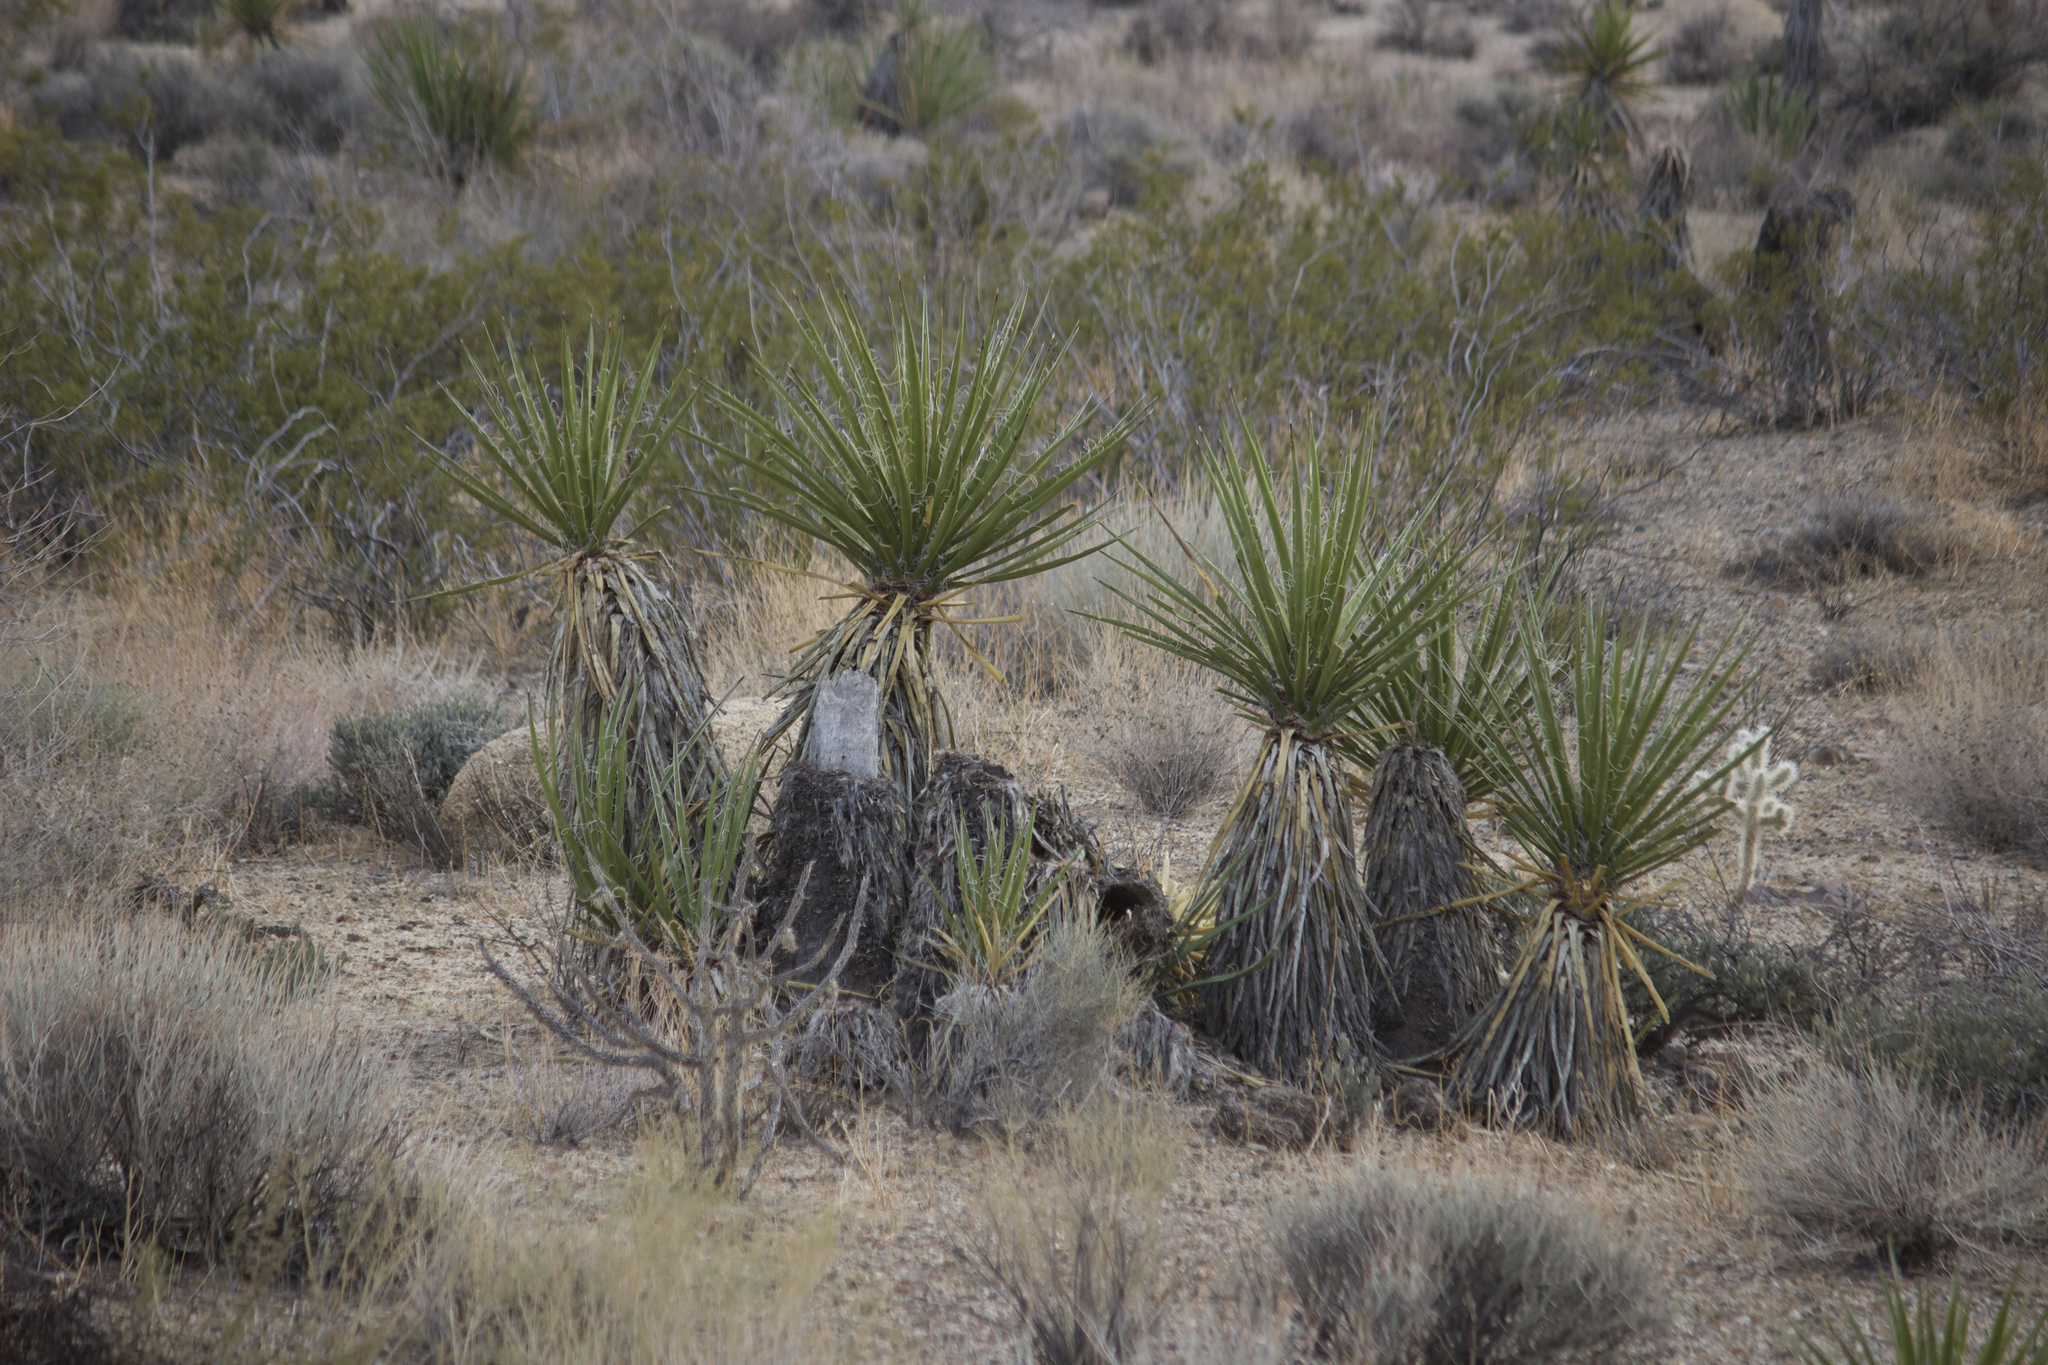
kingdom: Plantae
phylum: Tracheophyta
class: Liliopsida
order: Asparagales
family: Asparagaceae
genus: Yucca
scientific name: Yucca schidigera
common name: Mojave yucca
